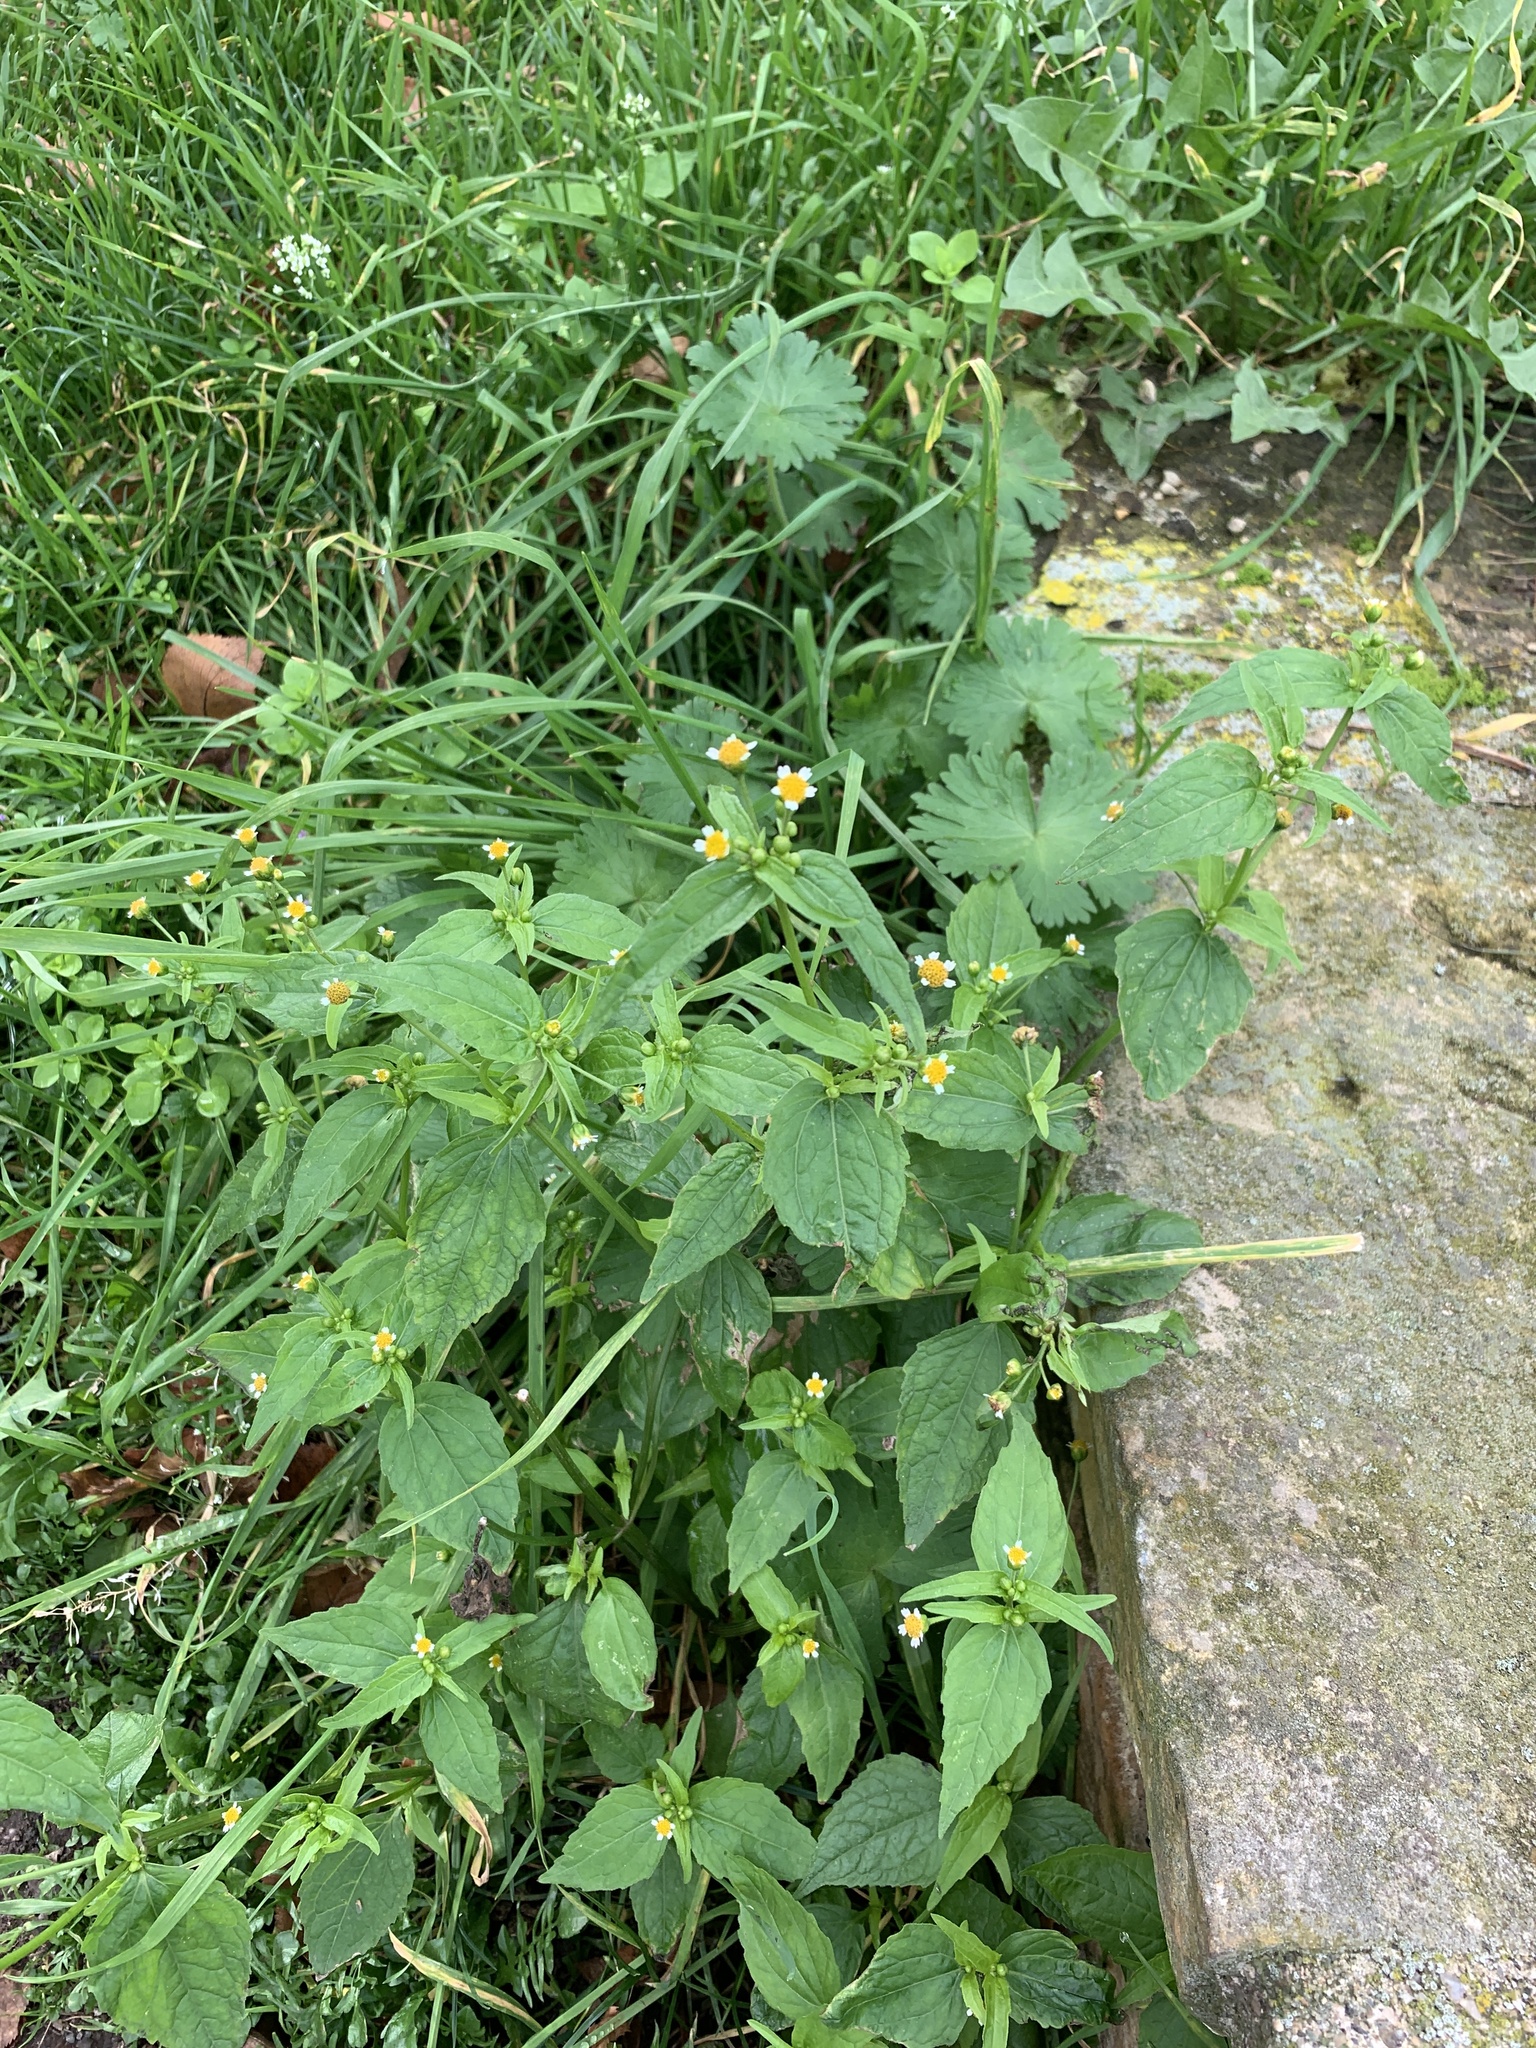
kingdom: Plantae
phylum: Tracheophyta
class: Magnoliopsida
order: Asterales
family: Asteraceae
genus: Galinsoga
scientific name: Galinsoga parviflora
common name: Gallant soldier
